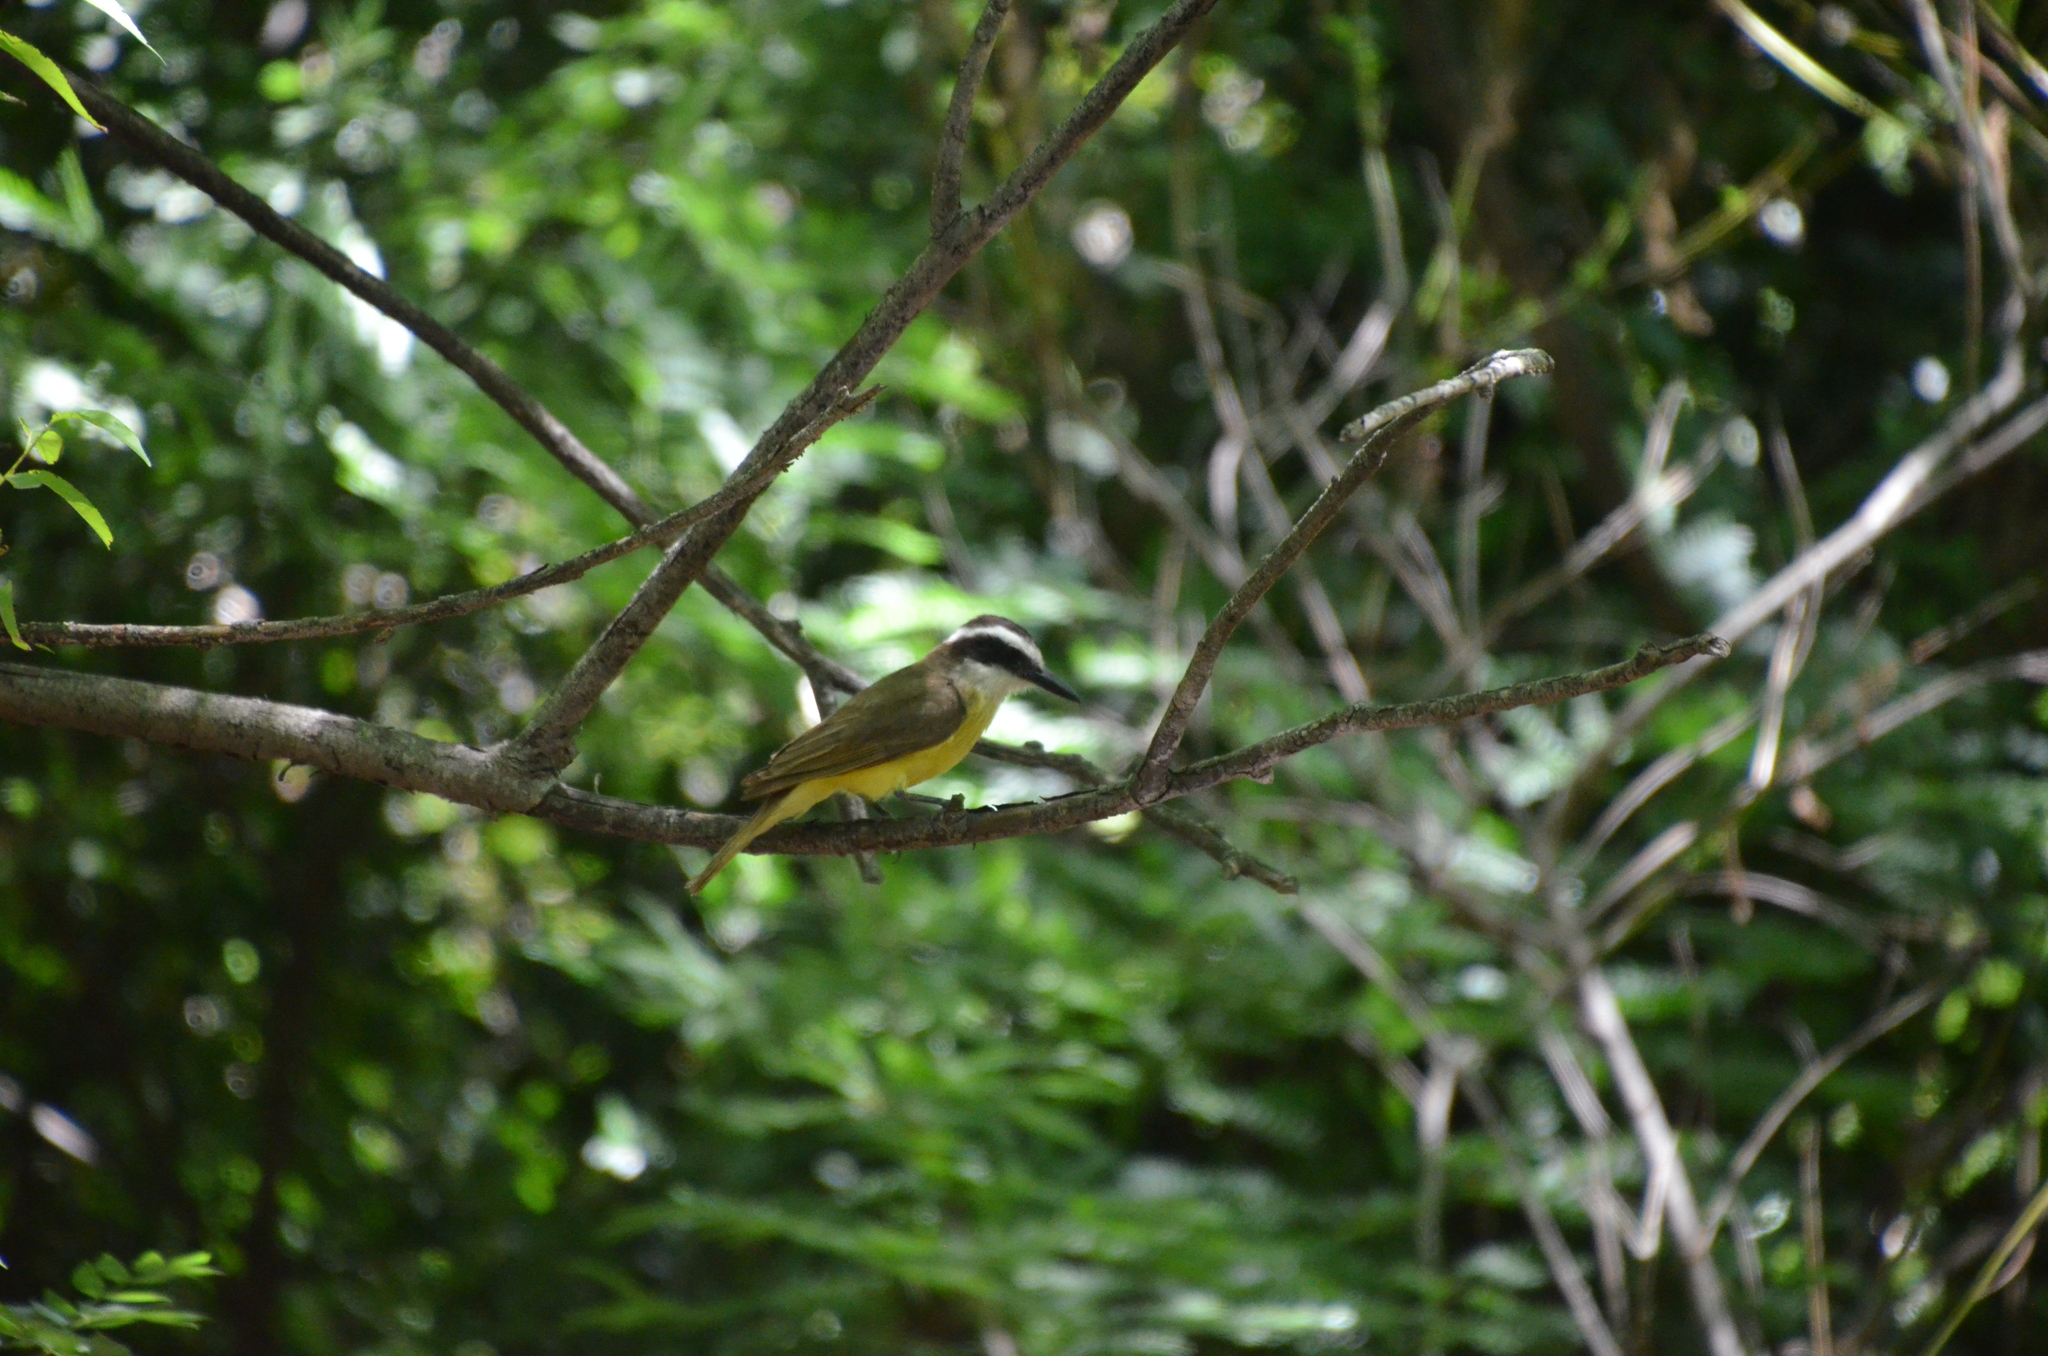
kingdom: Animalia
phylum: Chordata
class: Aves
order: Passeriformes
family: Tyrannidae
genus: Pitangus
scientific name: Pitangus sulphuratus
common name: Great kiskadee
